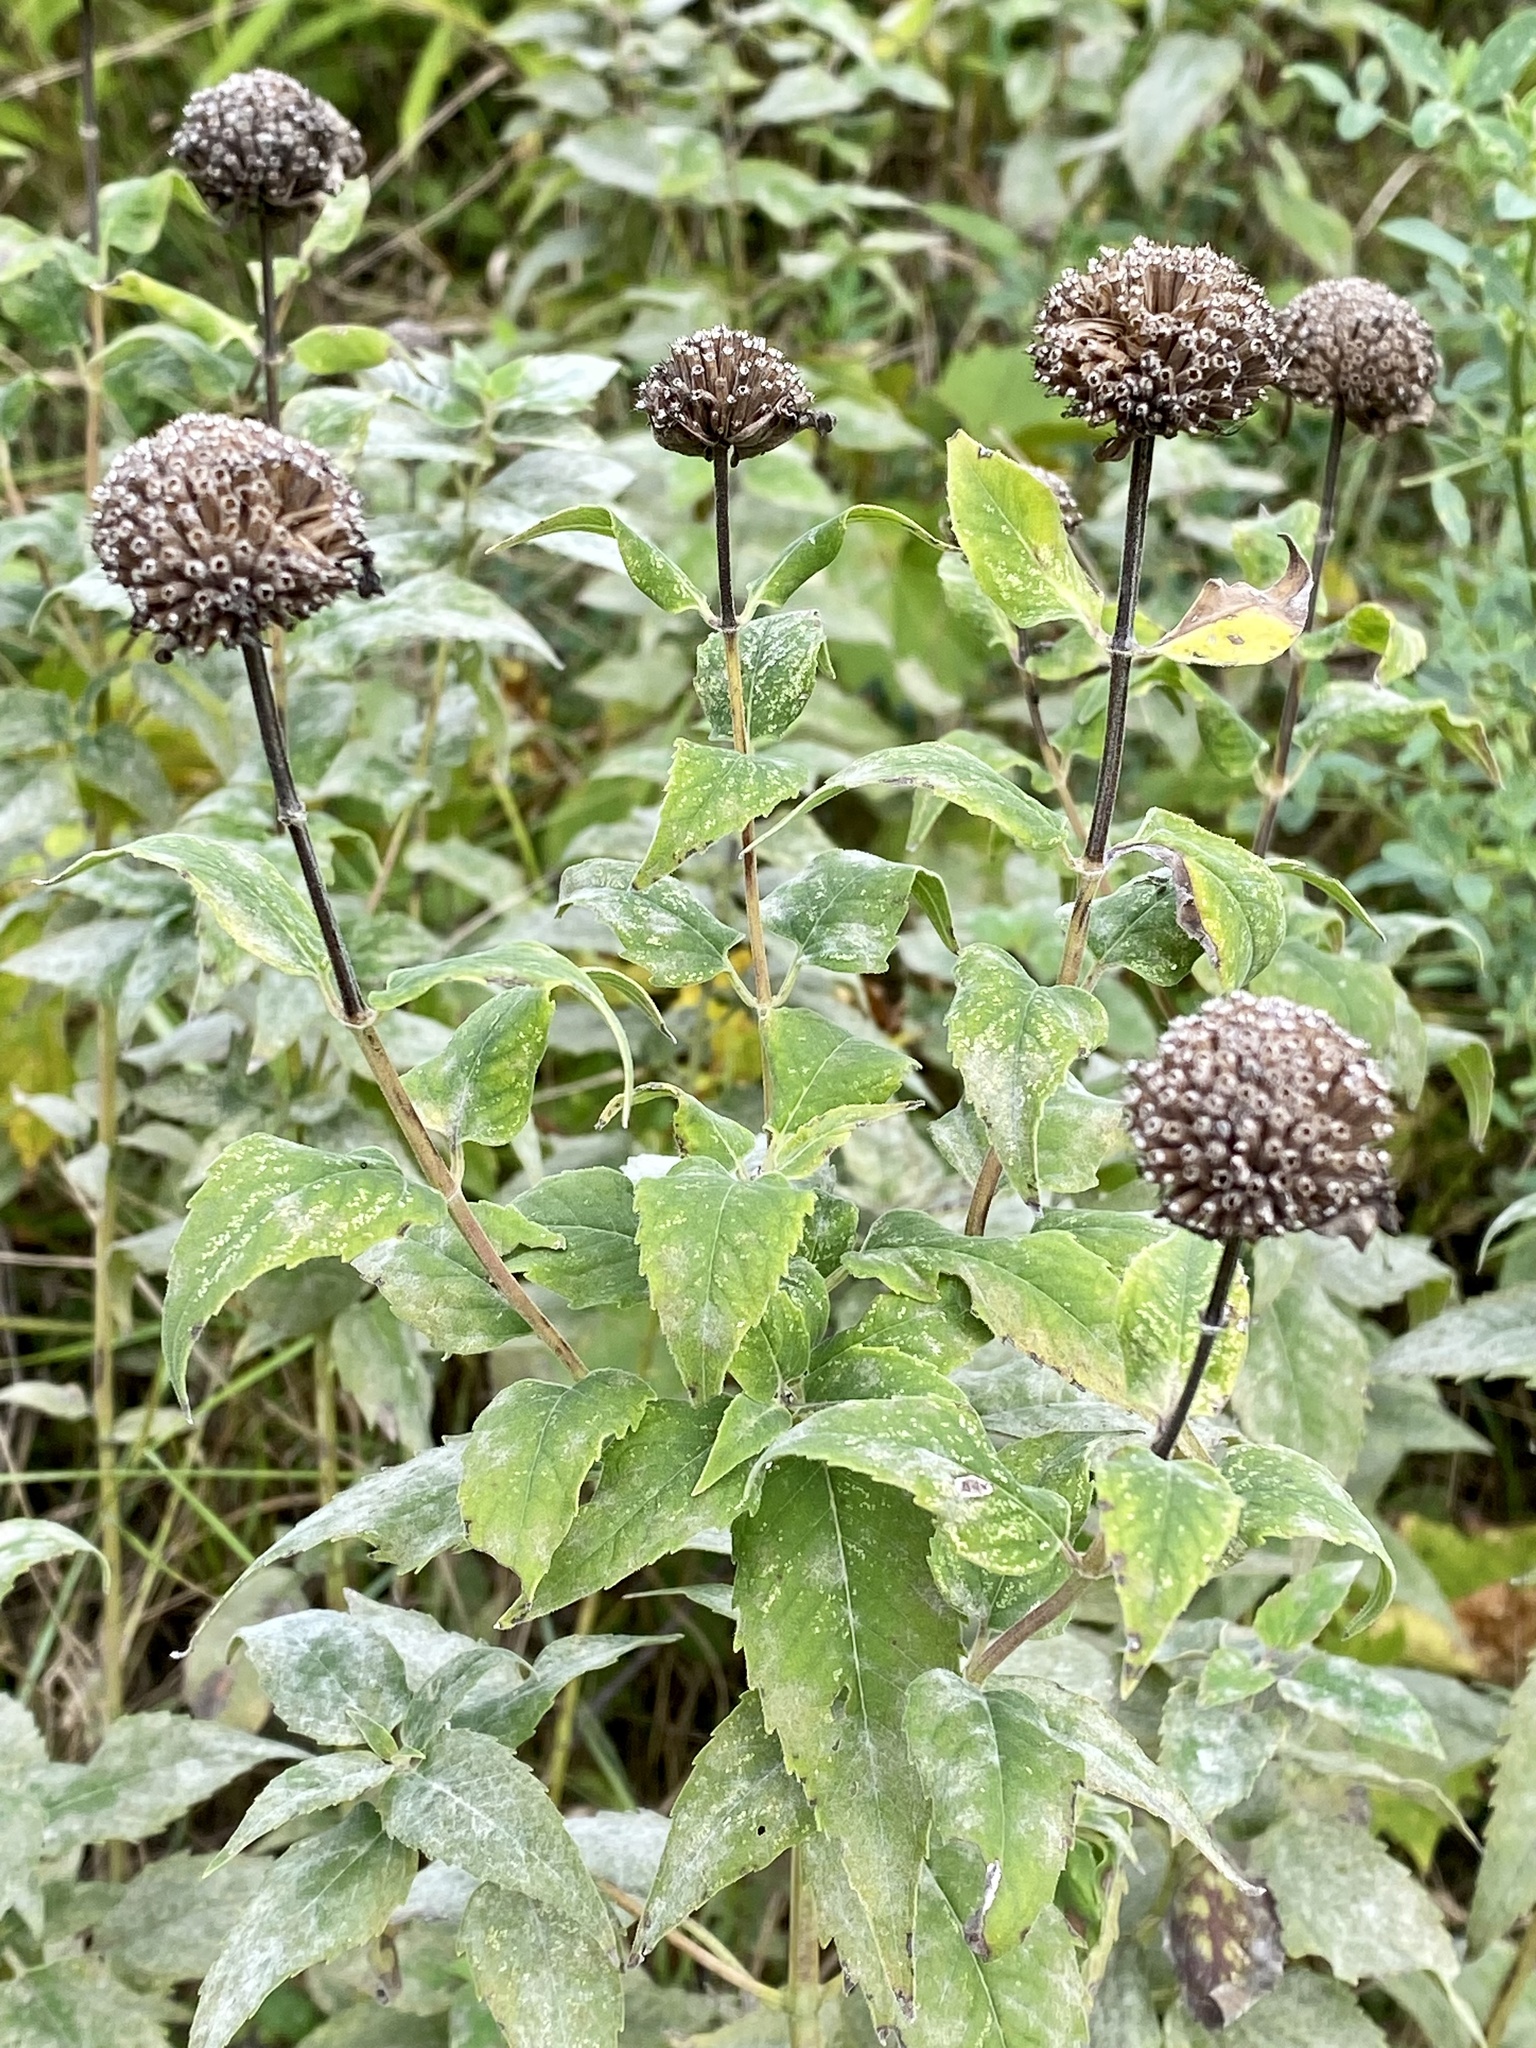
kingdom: Plantae
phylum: Tracheophyta
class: Magnoliopsida
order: Lamiales
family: Lamiaceae
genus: Monarda
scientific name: Monarda fistulosa
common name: Purple beebalm
